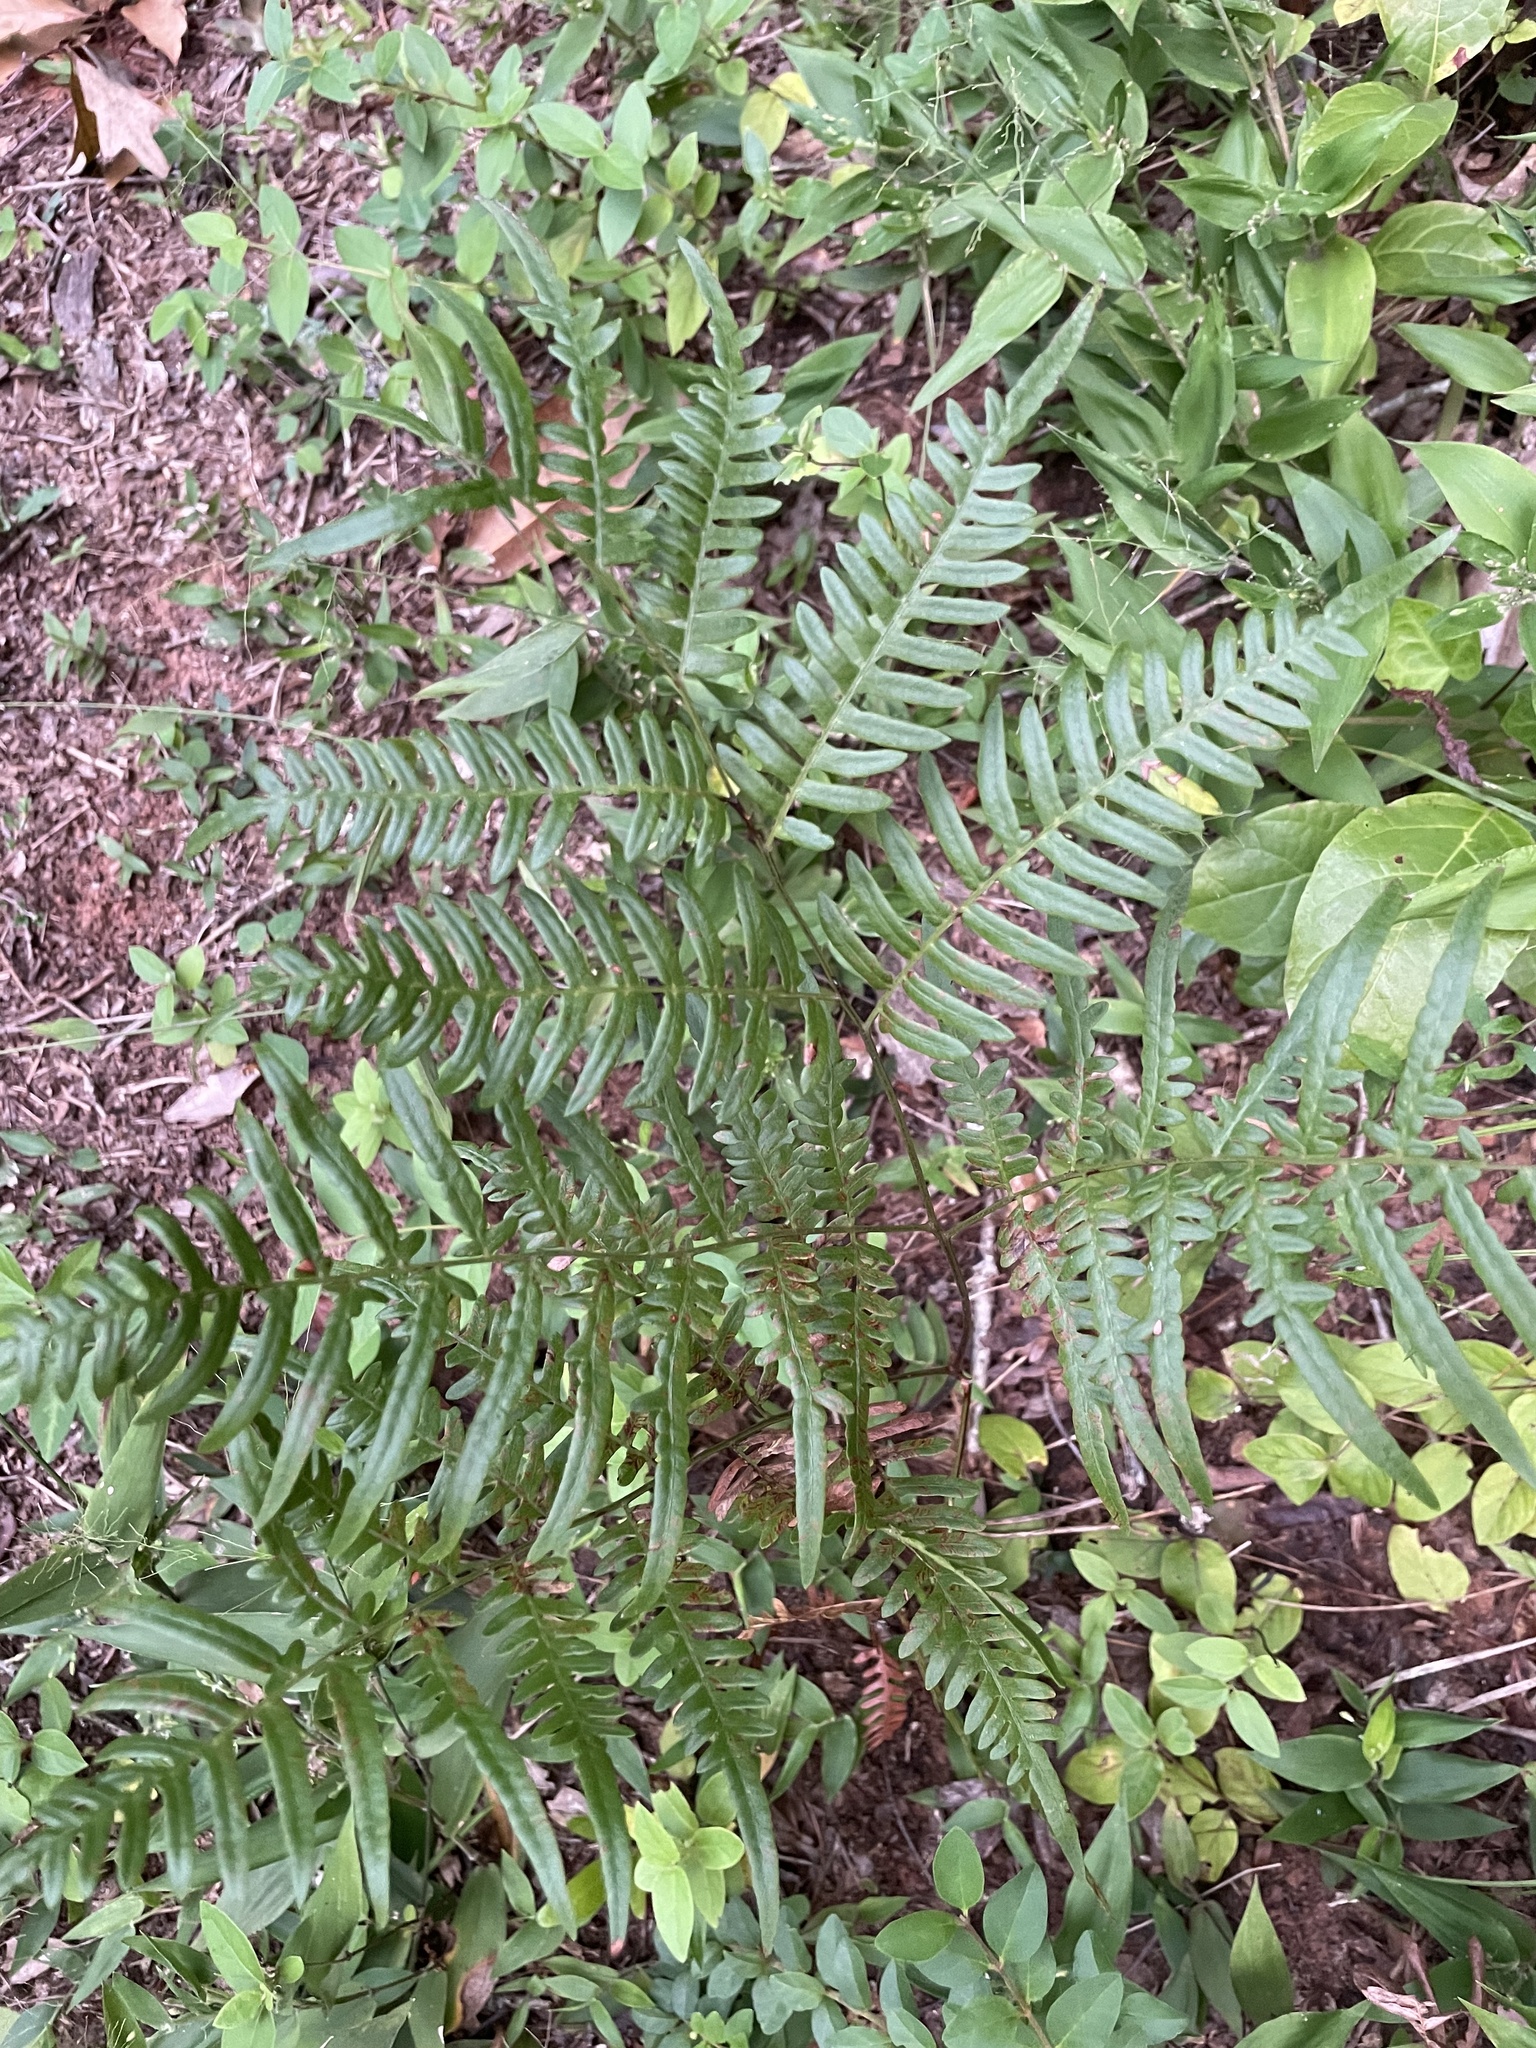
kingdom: Plantae
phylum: Tracheophyta
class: Polypodiopsida
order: Polypodiales
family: Dennstaedtiaceae
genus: Pteridium
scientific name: Pteridium aquilinum
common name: Bracken
